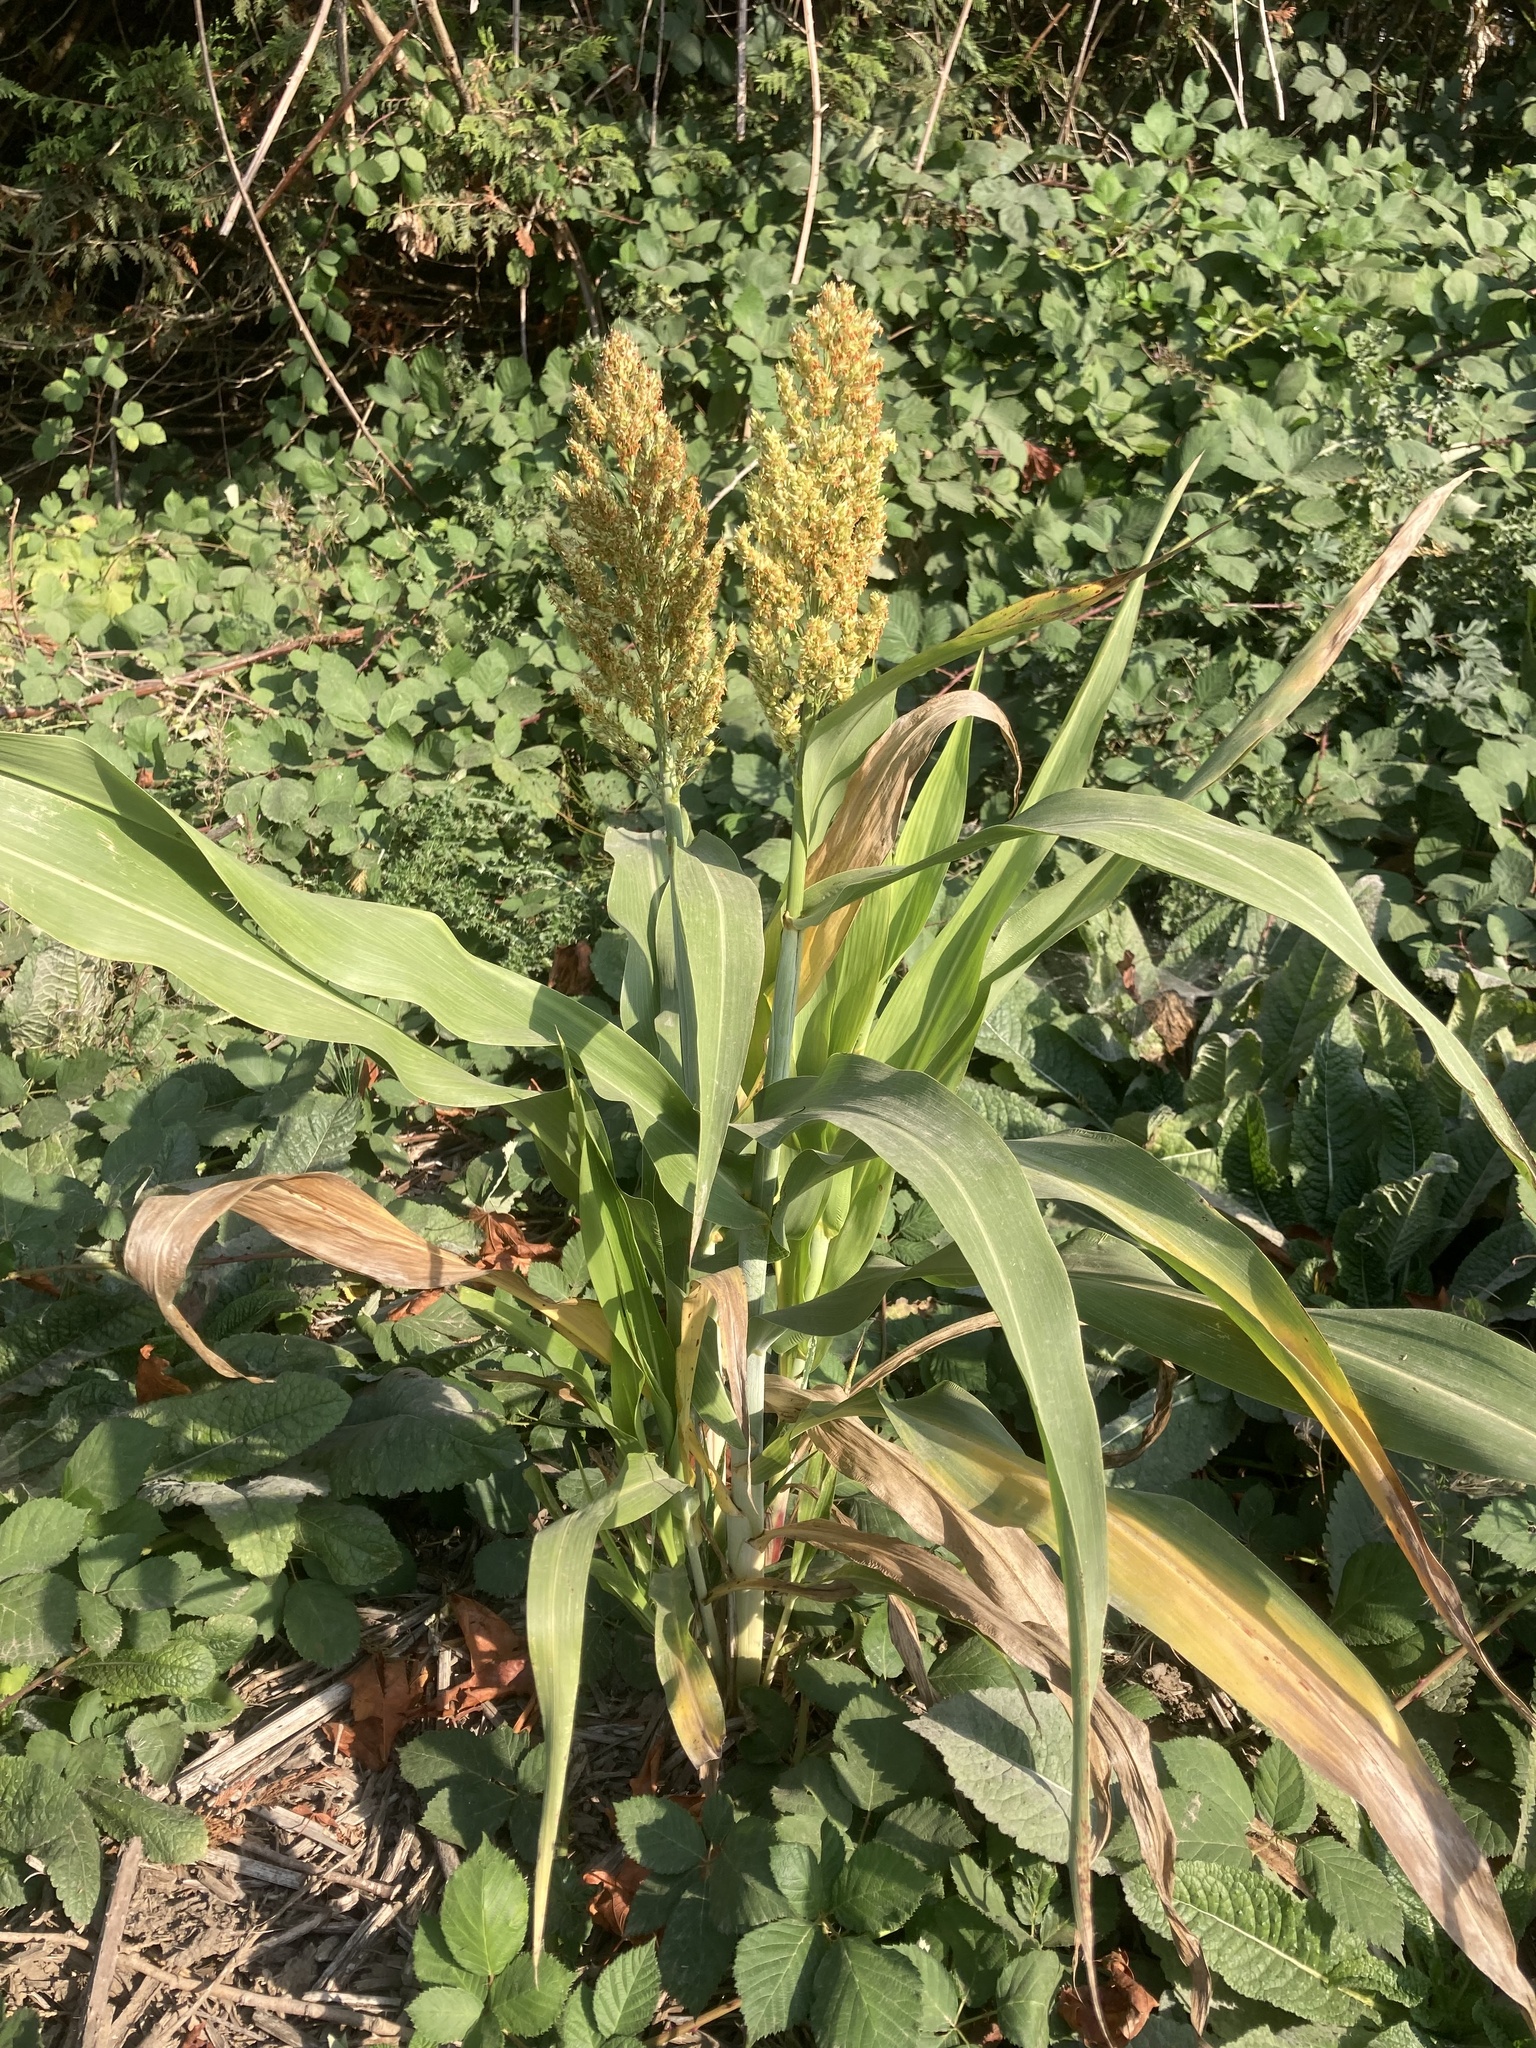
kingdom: Plantae
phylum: Tracheophyta
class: Liliopsida
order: Poales
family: Poaceae
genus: Sorghum
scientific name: Sorghum bicolor
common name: Sorghum
